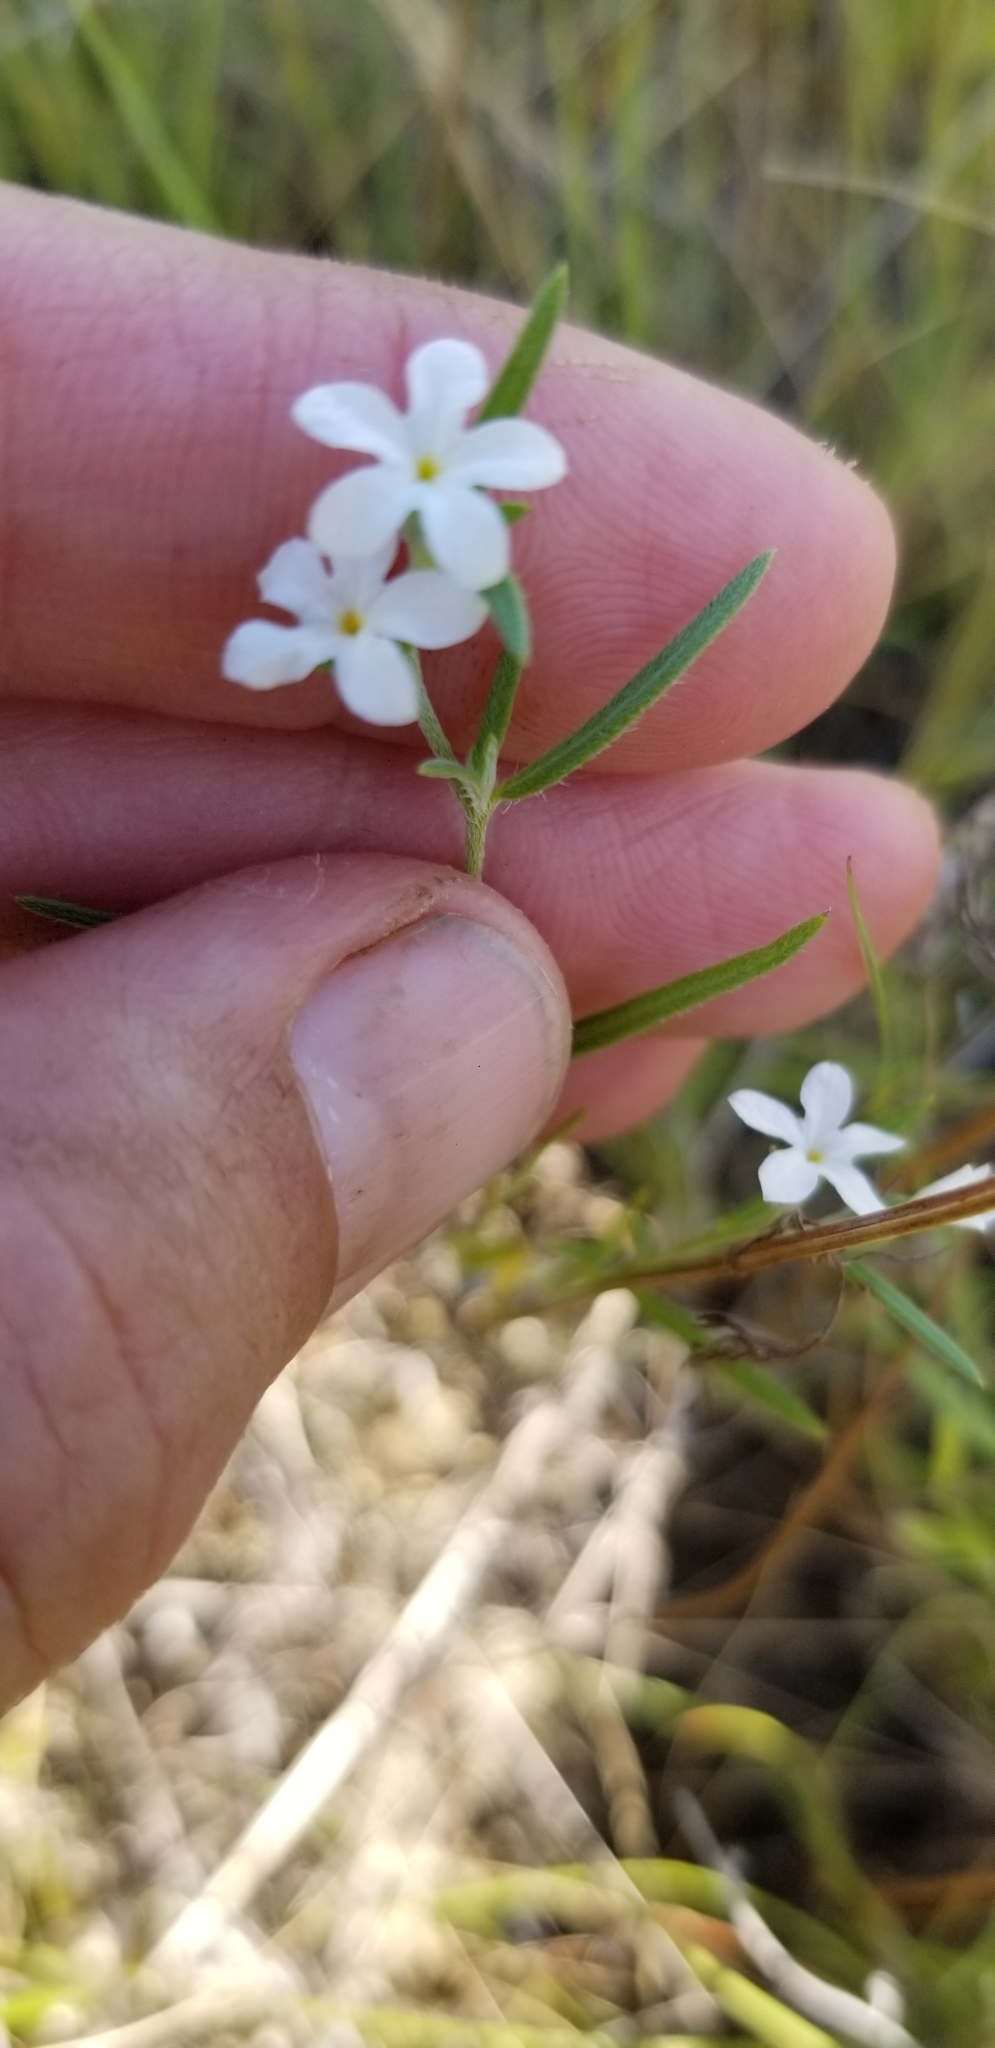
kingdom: Plantae
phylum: Tracheophyta
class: Magnoliopsida
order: Boraginales
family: Heliotropiaceae
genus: Euploca
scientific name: Euploca tenella
